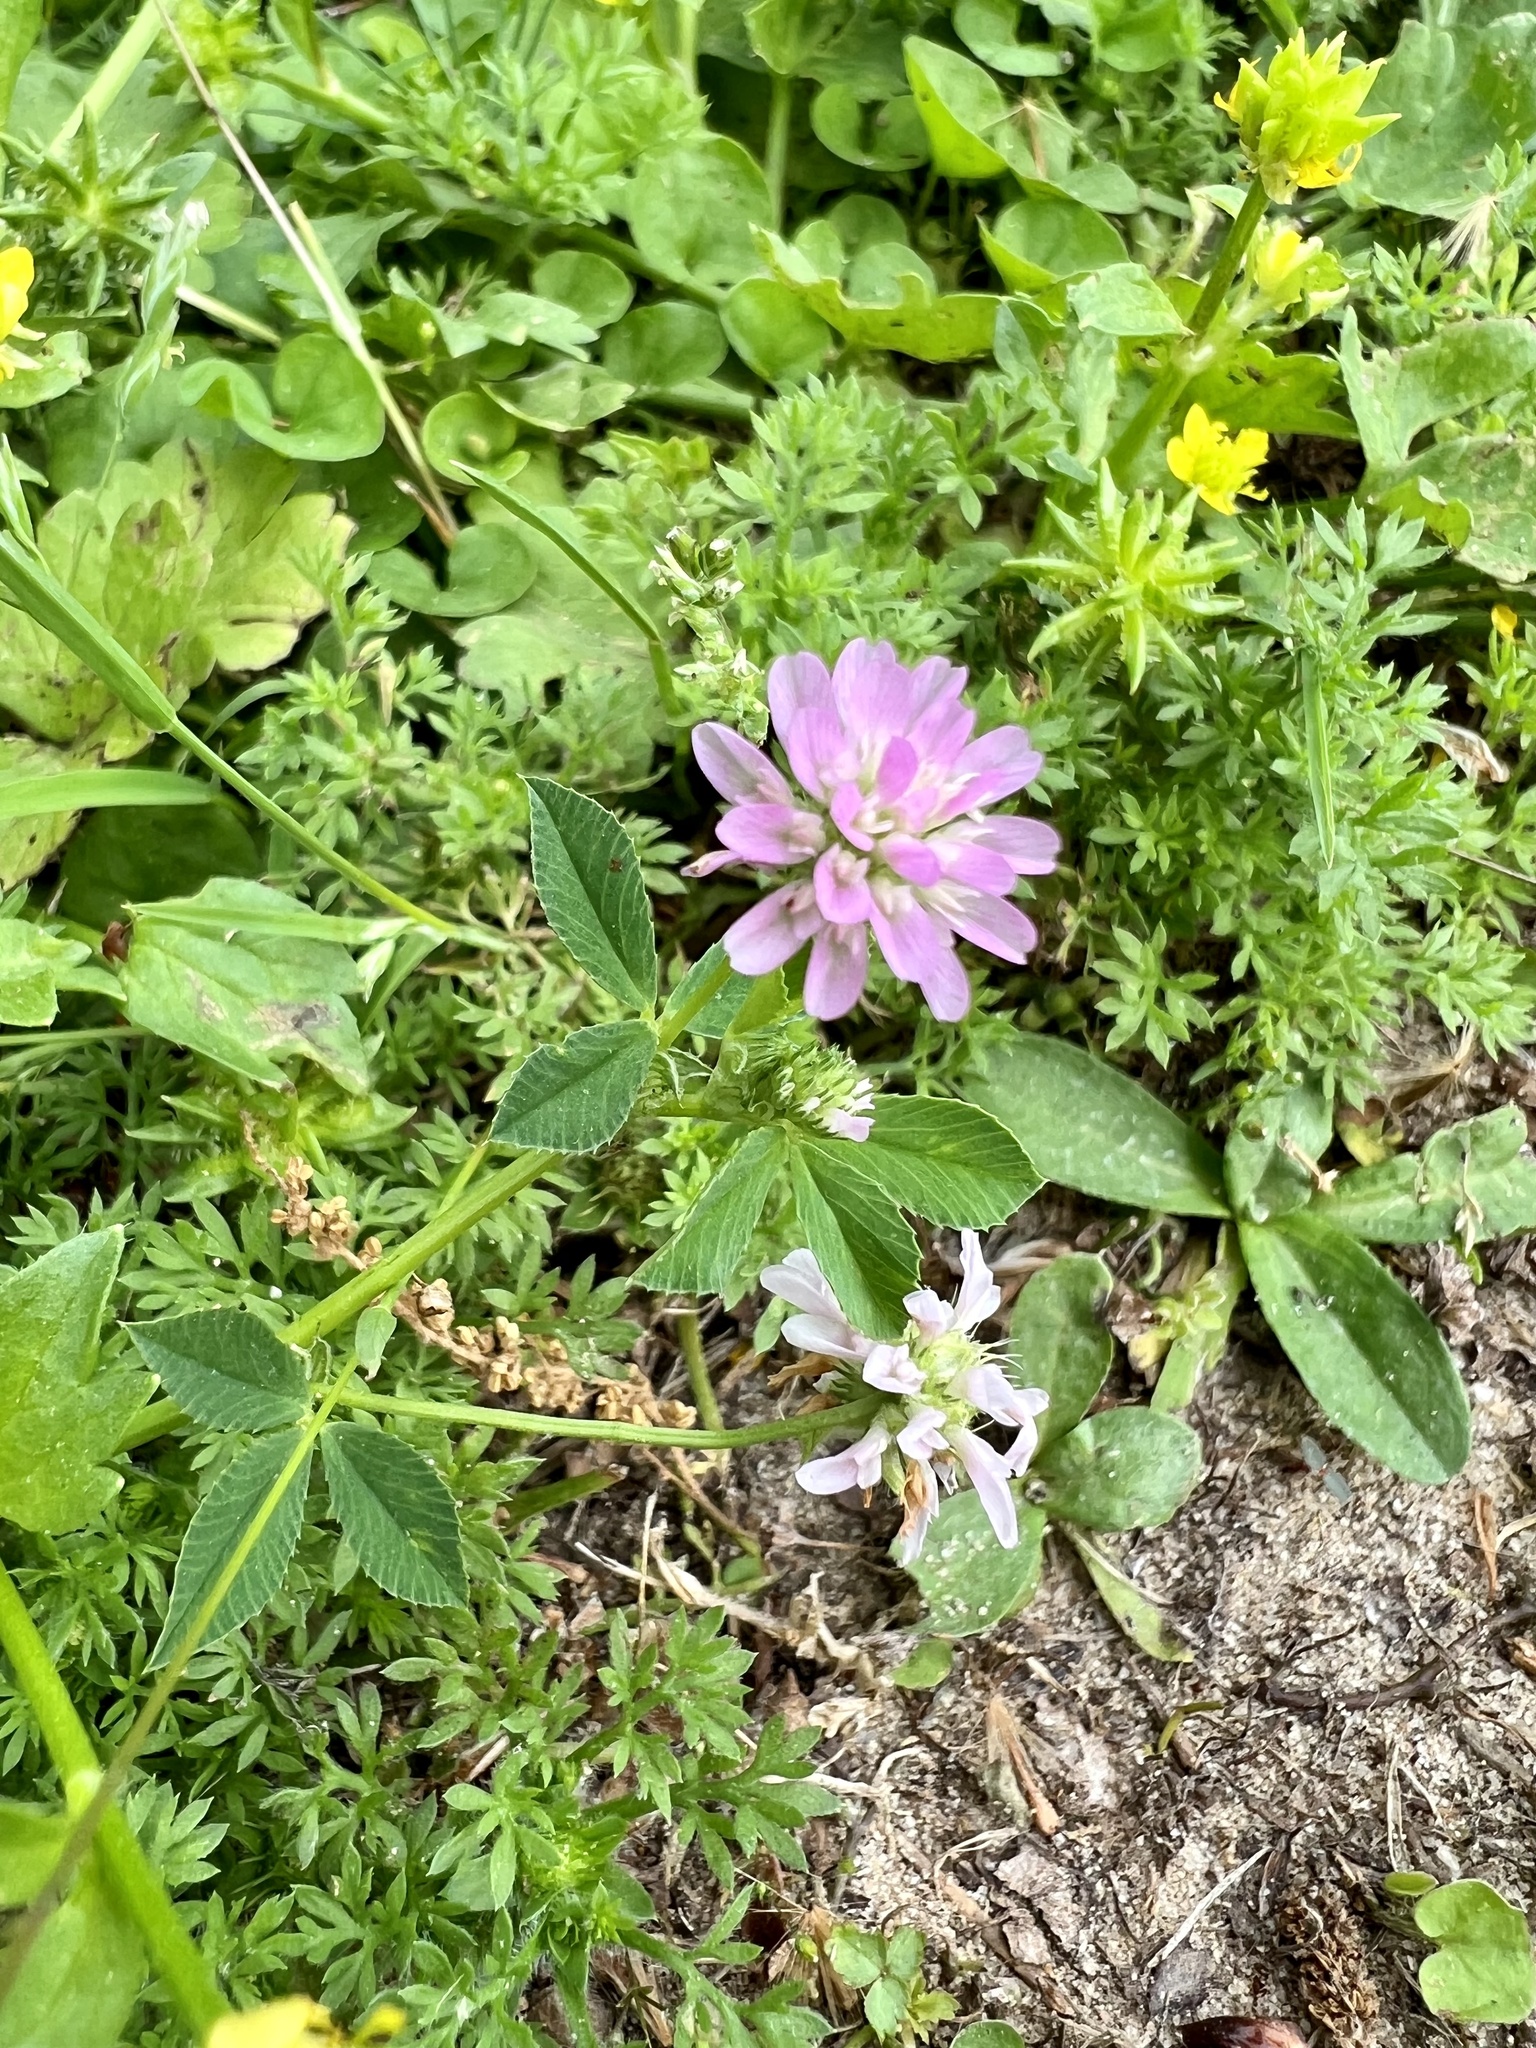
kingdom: Plantae
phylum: Tracheophyta
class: Magnoliopsida
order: Fabales
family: Fabaceae
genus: Trifolium
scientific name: Trifolium resupinatum
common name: Reversed clover
